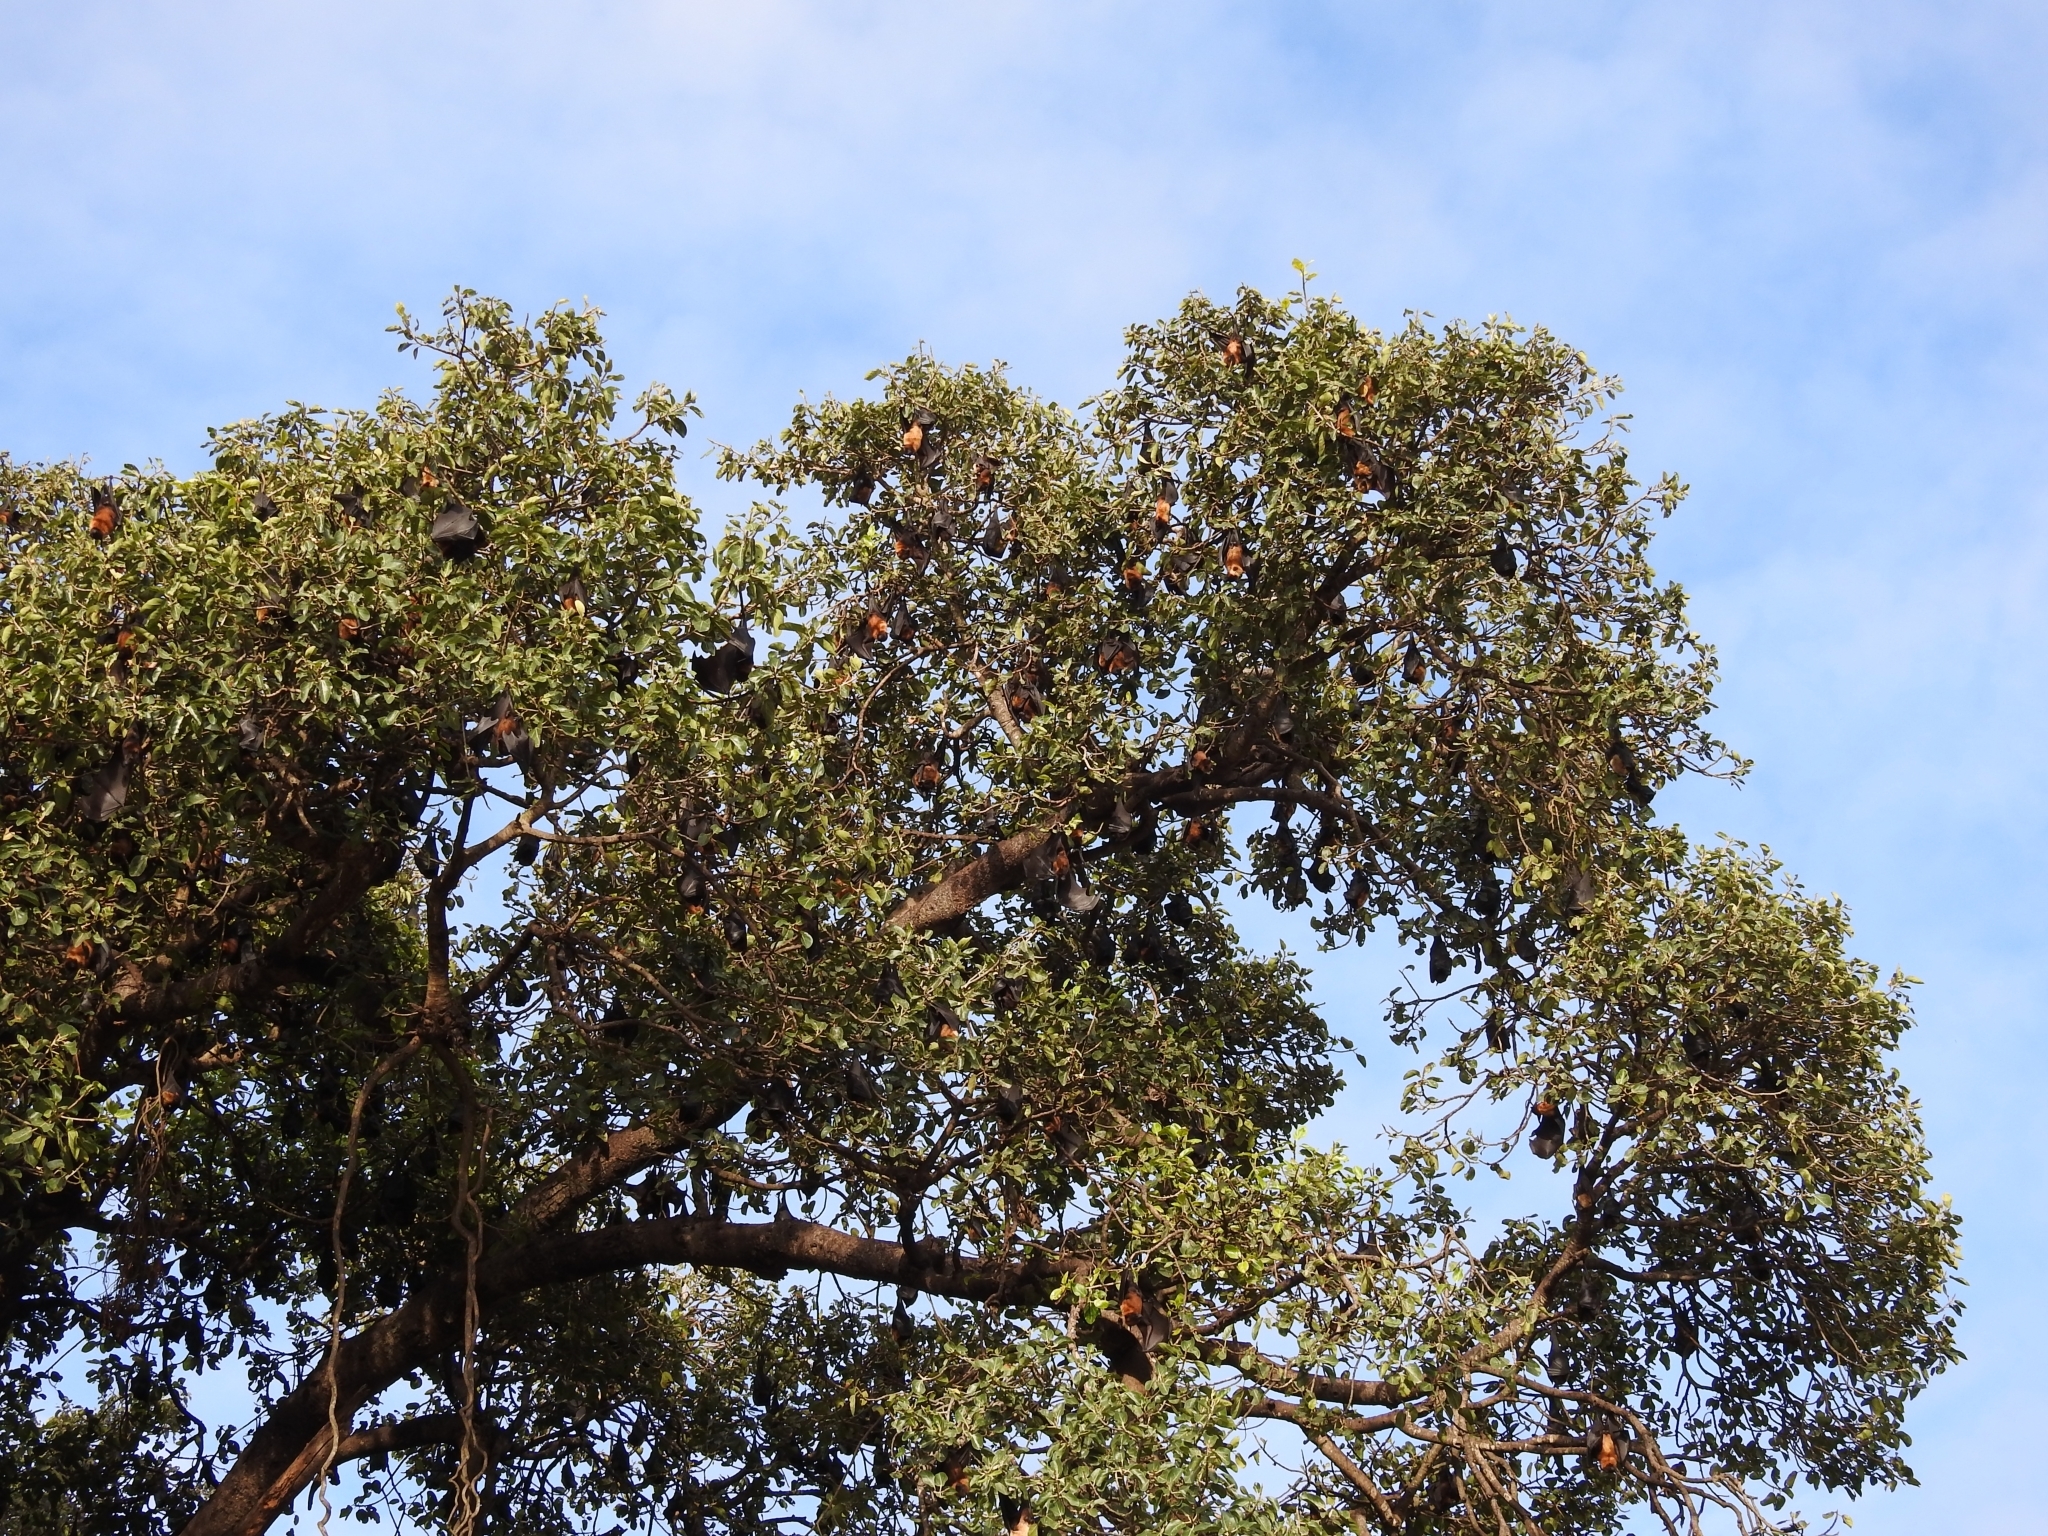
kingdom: Animalia
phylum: Chordata
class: Mammalia
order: Chiroptera
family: Pteropodidae
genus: Pteropus
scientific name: Pteropus vampyrus
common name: Large flying fox
